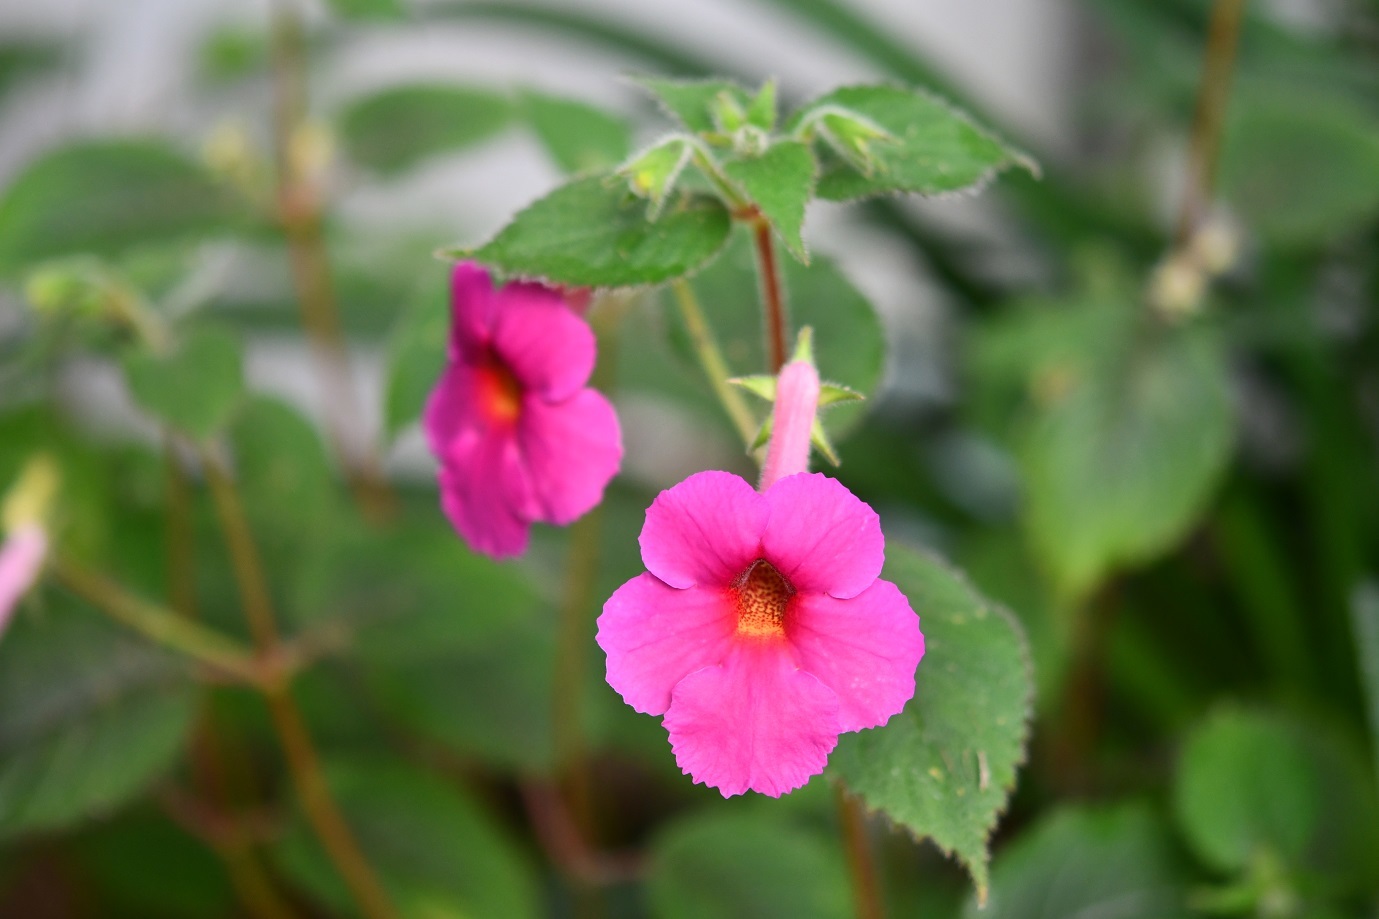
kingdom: Plantae
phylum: Tracheophyta
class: Magnoliopsida
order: Lamiales
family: Gesneriaceae
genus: Achimenes
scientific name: Achimenes skinneri
